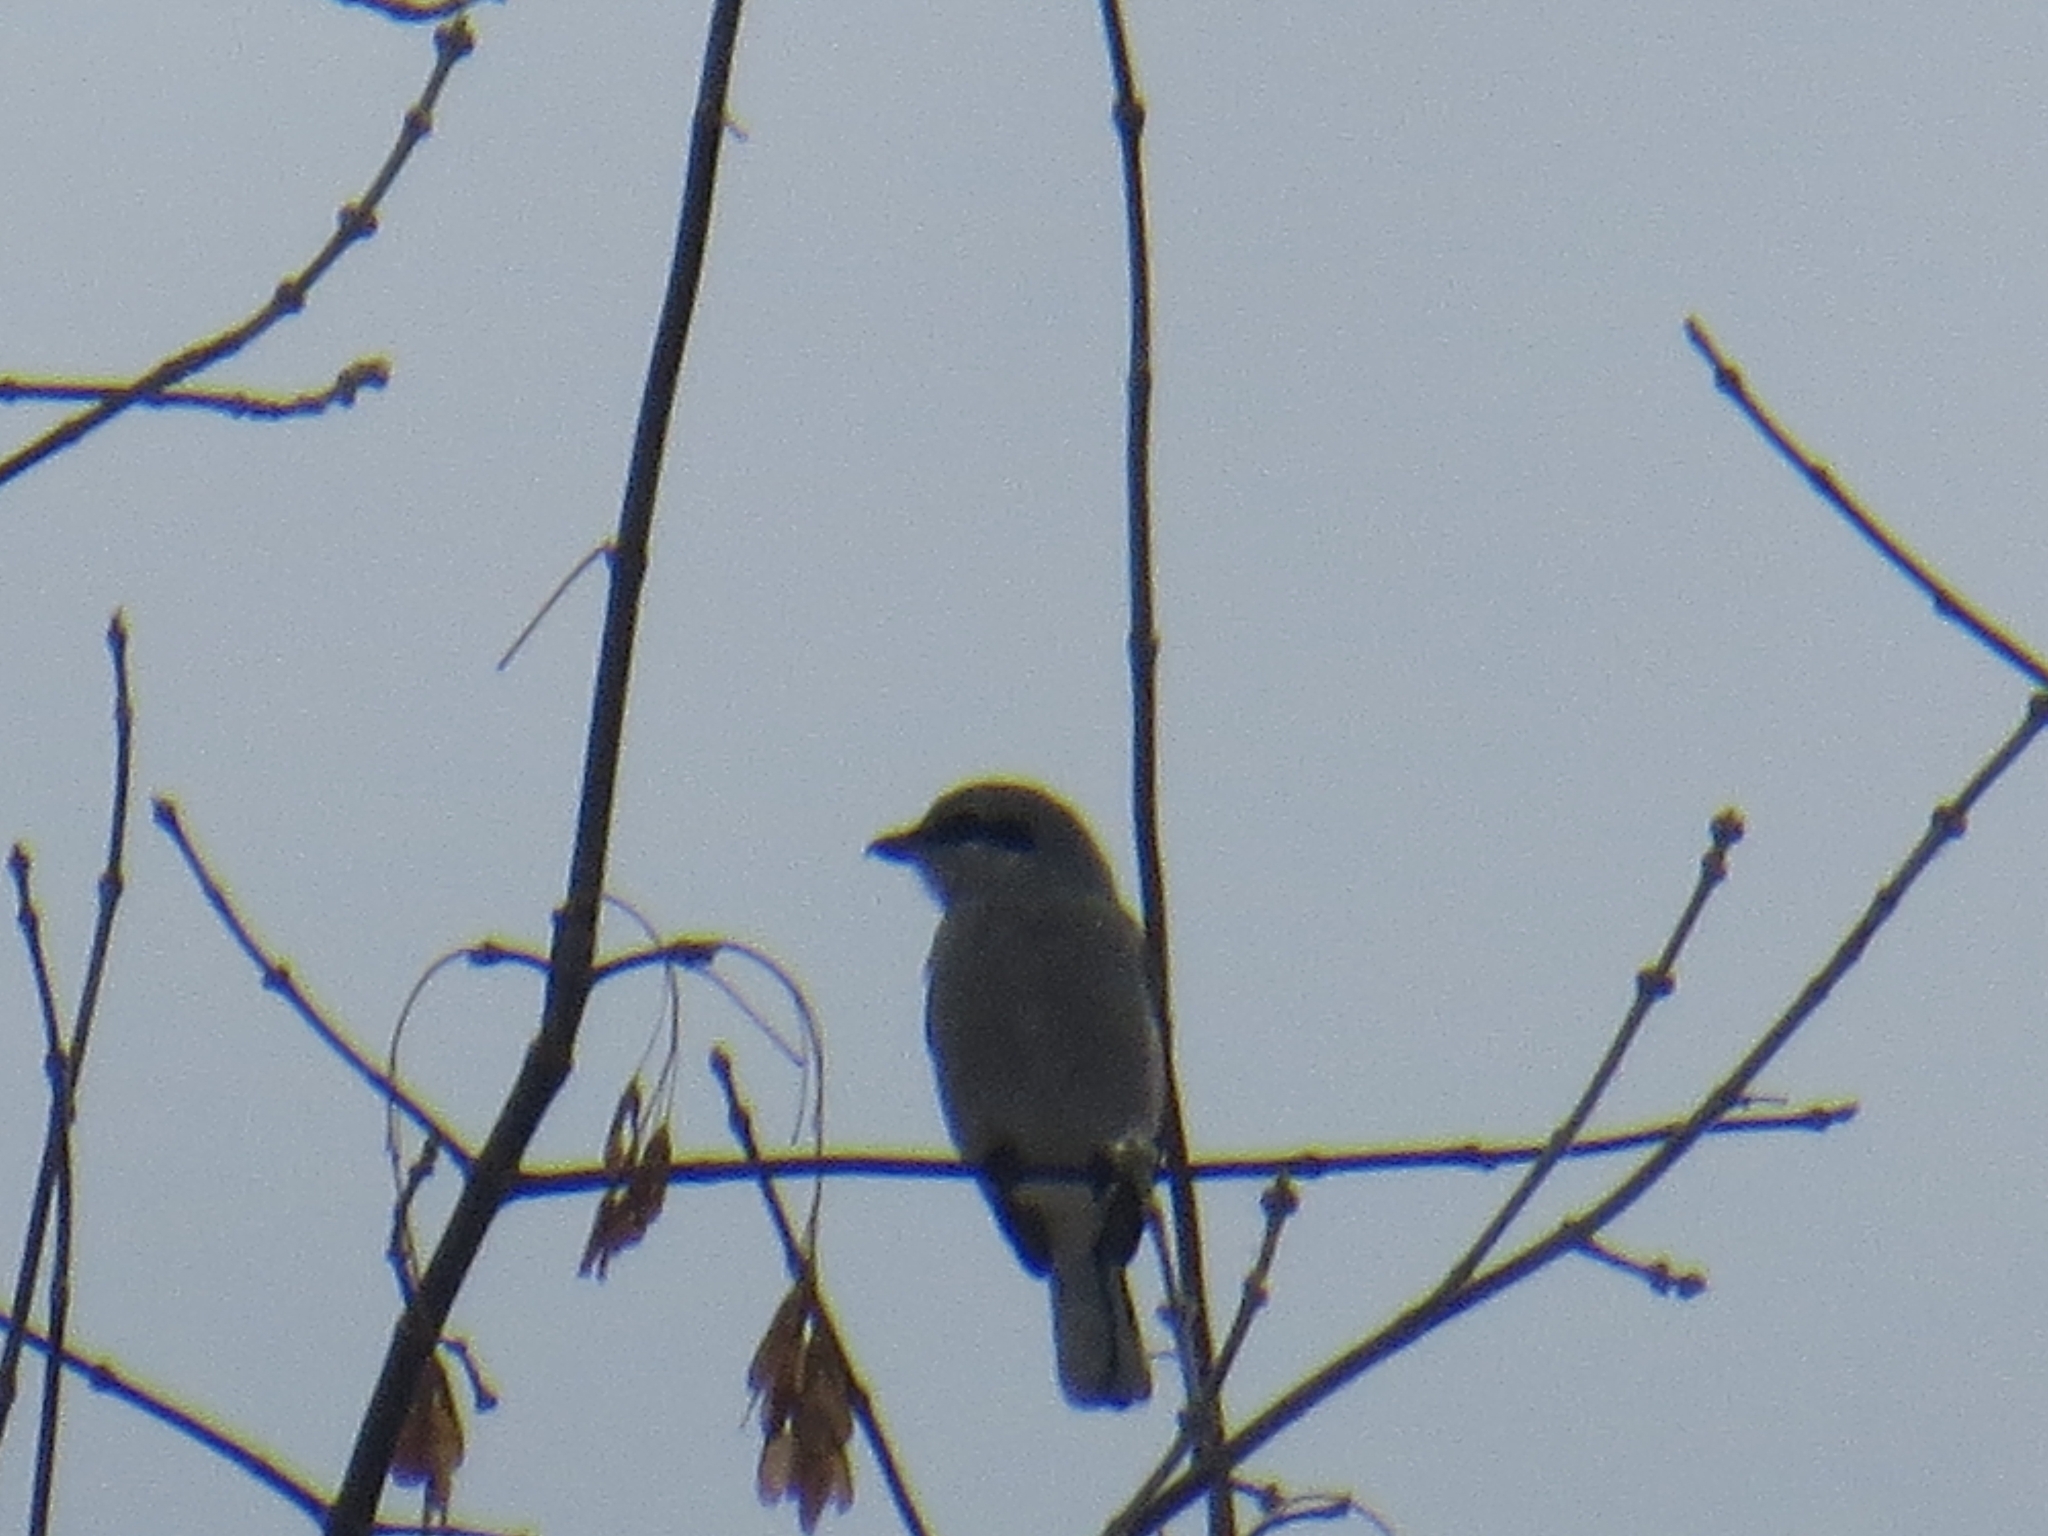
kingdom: Animalia
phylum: Chordata
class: Aves
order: Passeriformes
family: Laniidae
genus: Lanius
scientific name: Lanius excubitor
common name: Great grey shrike
